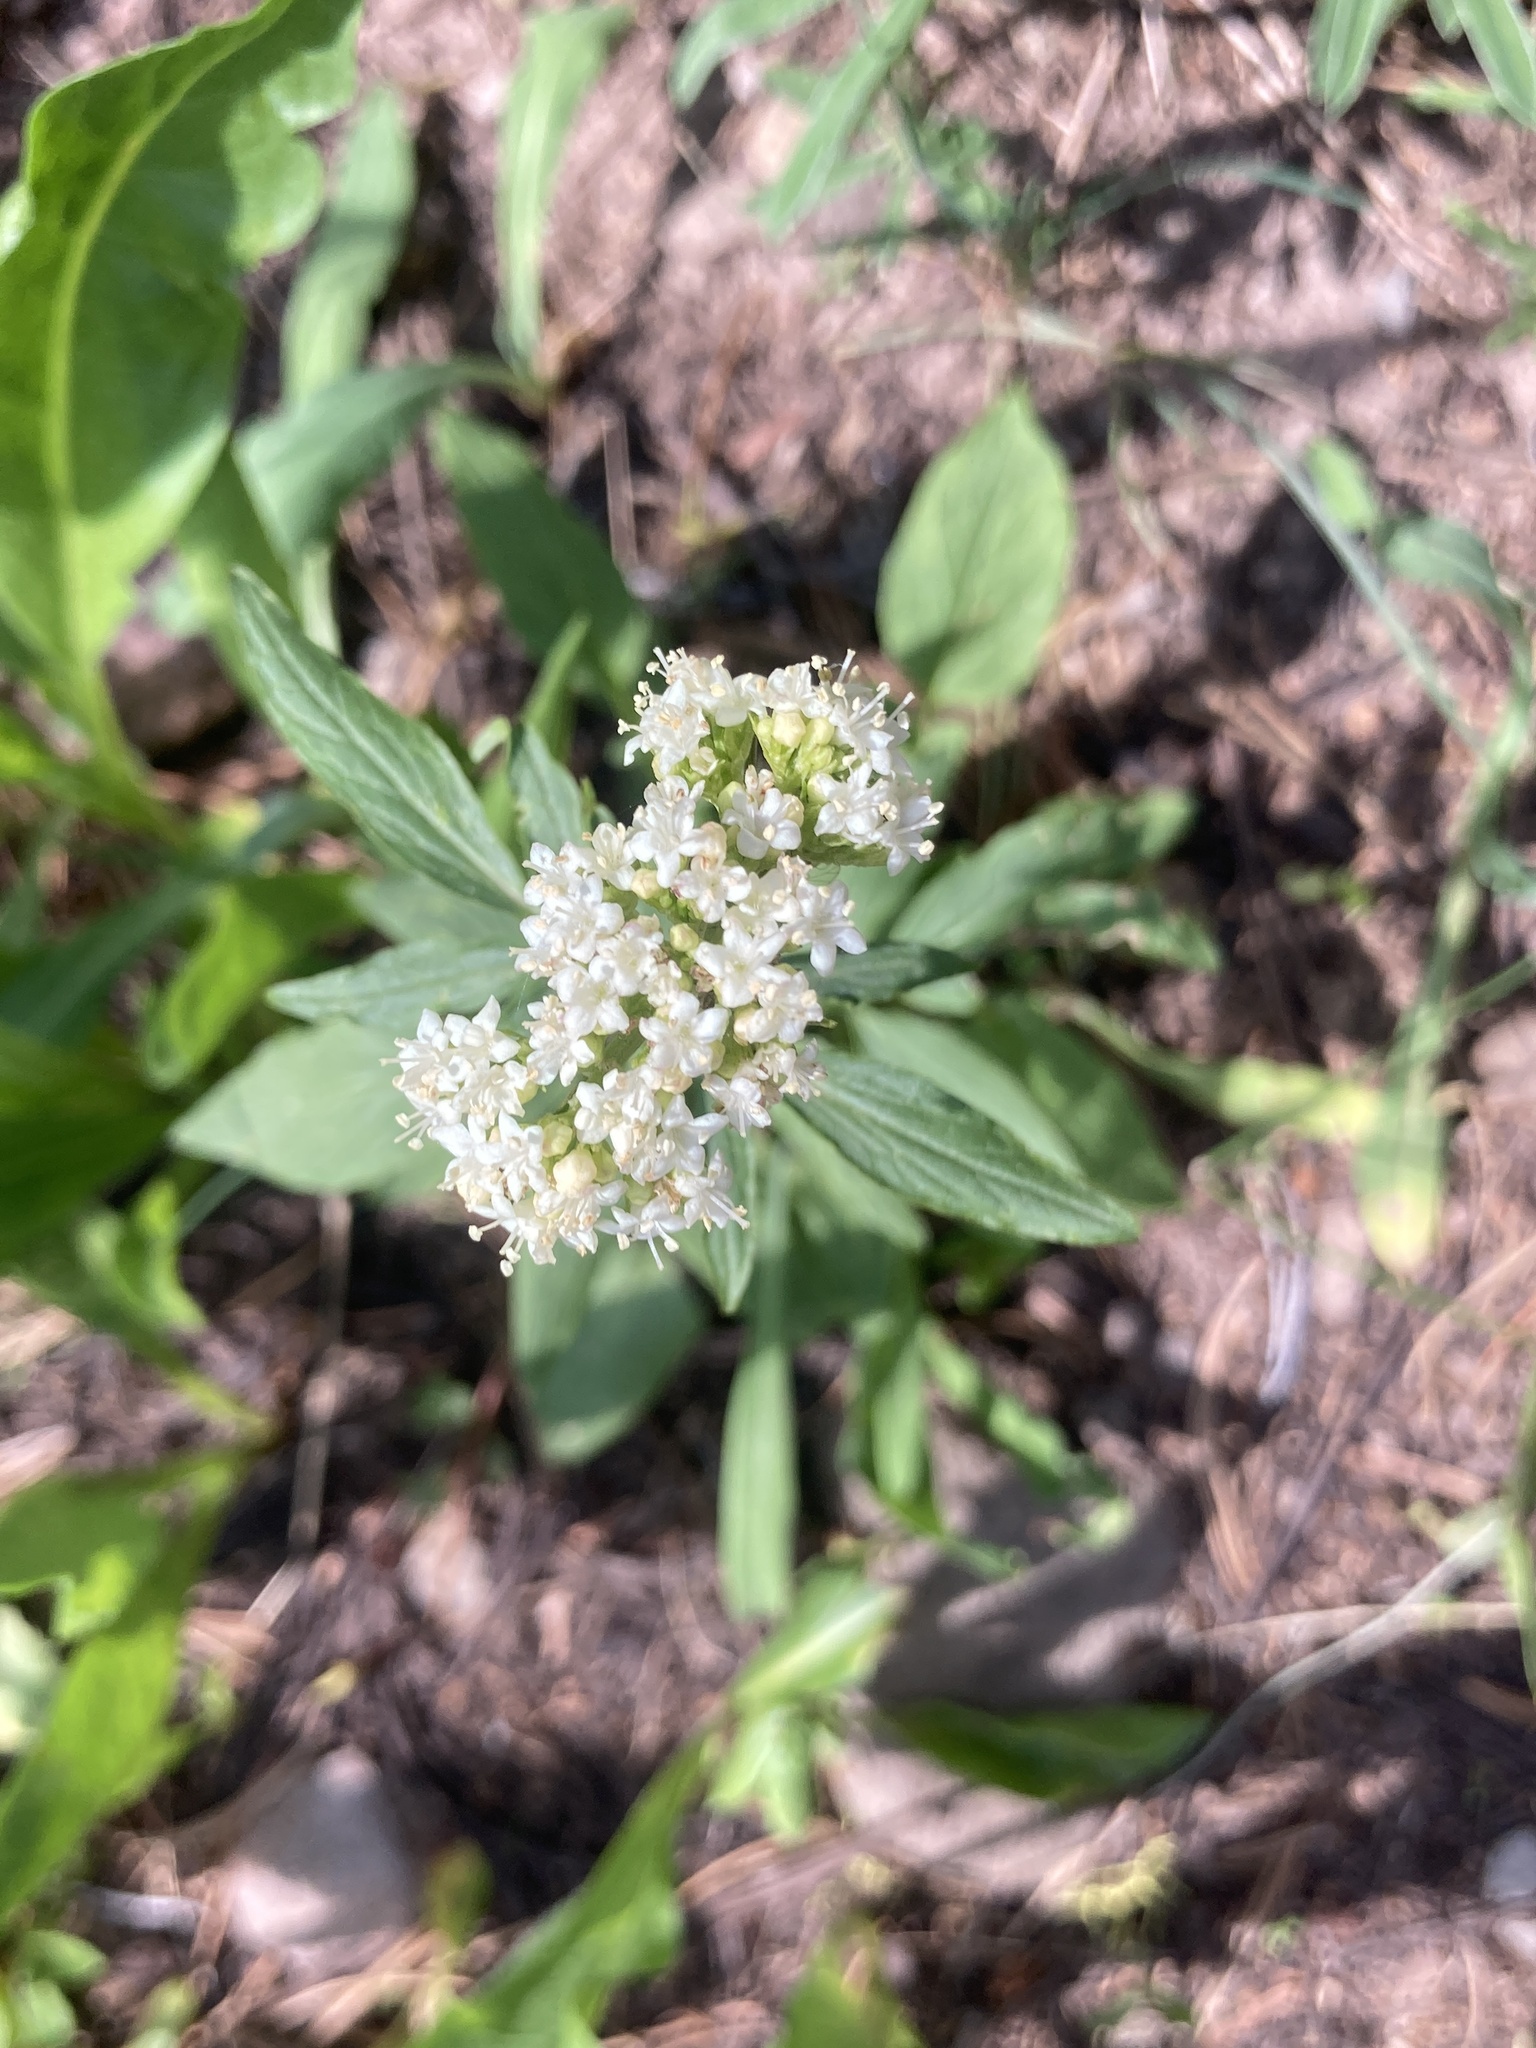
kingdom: Plantae
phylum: Tracheophyta
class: Magnoliopsida
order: Dipsacales
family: Caprifoliaceae
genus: Valeriana
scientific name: Valeriana occidentalis
